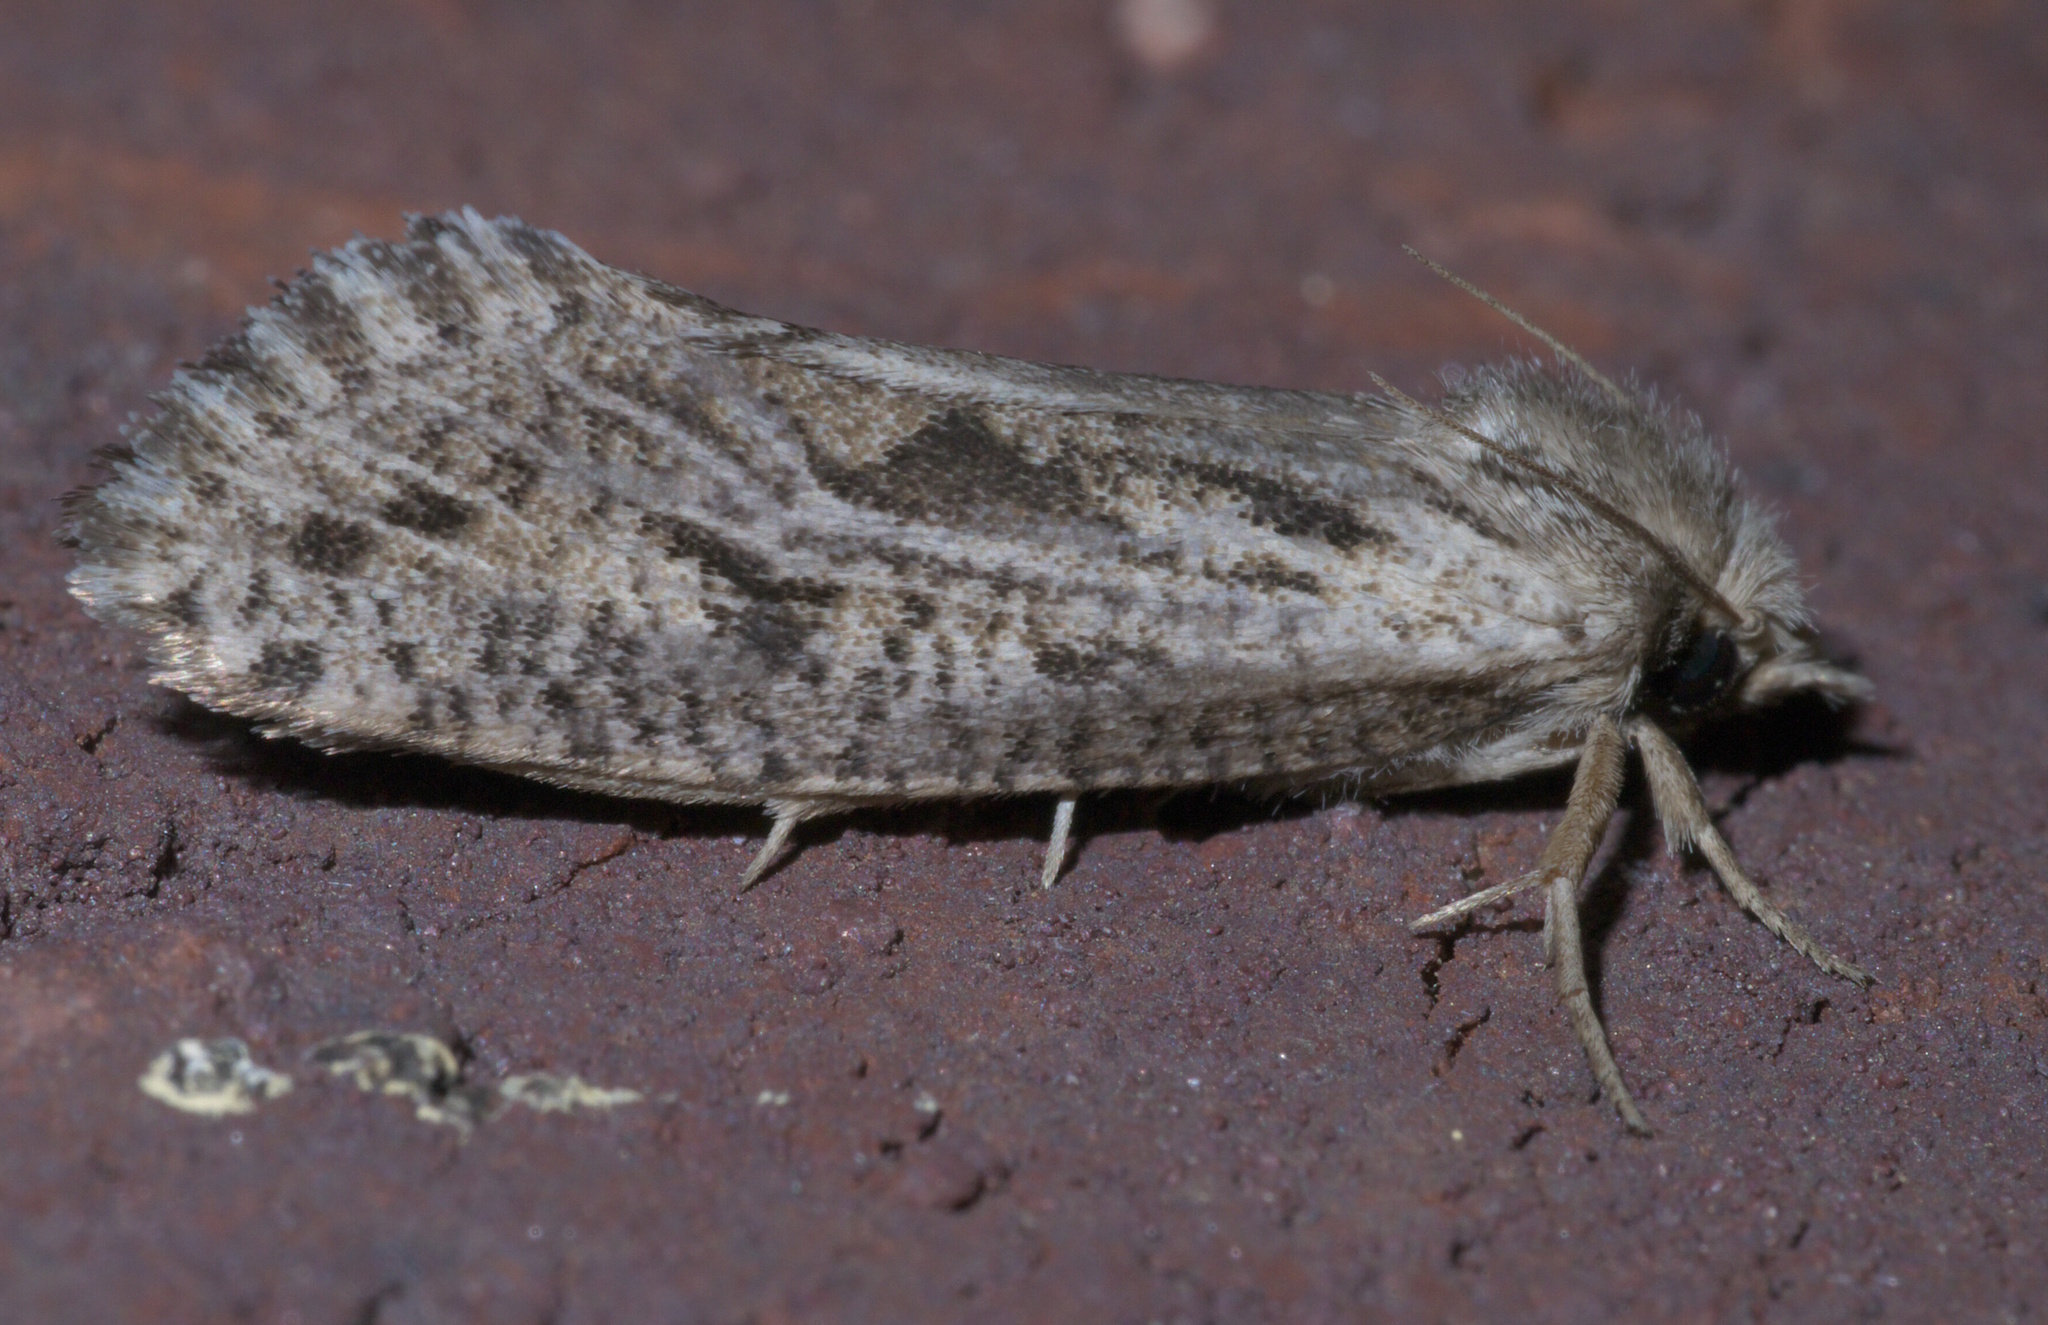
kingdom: Animalia
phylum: Arthropoda
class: Insecta
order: Lepidoptera
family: Tineidae
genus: Acrolophus
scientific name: Acrolophus popeanella
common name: Clemens' grass tubeworm moth
